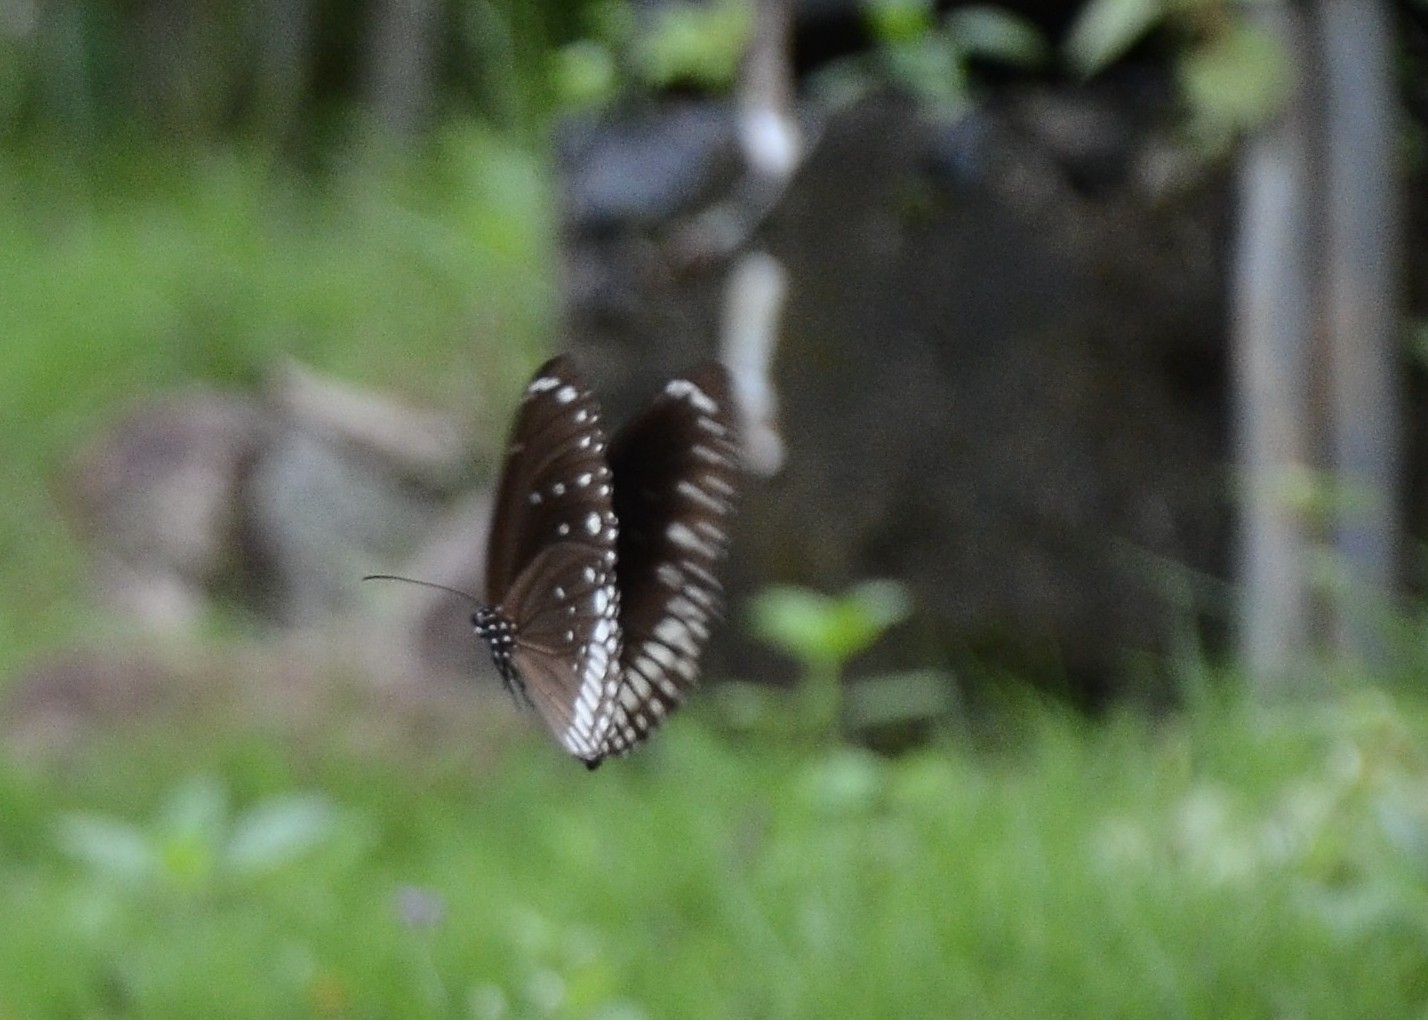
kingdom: Animalia
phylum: Arthropoda
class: Insecta
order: Lepidoptera
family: Nymphalidae
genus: Euploea
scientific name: Euploea core
